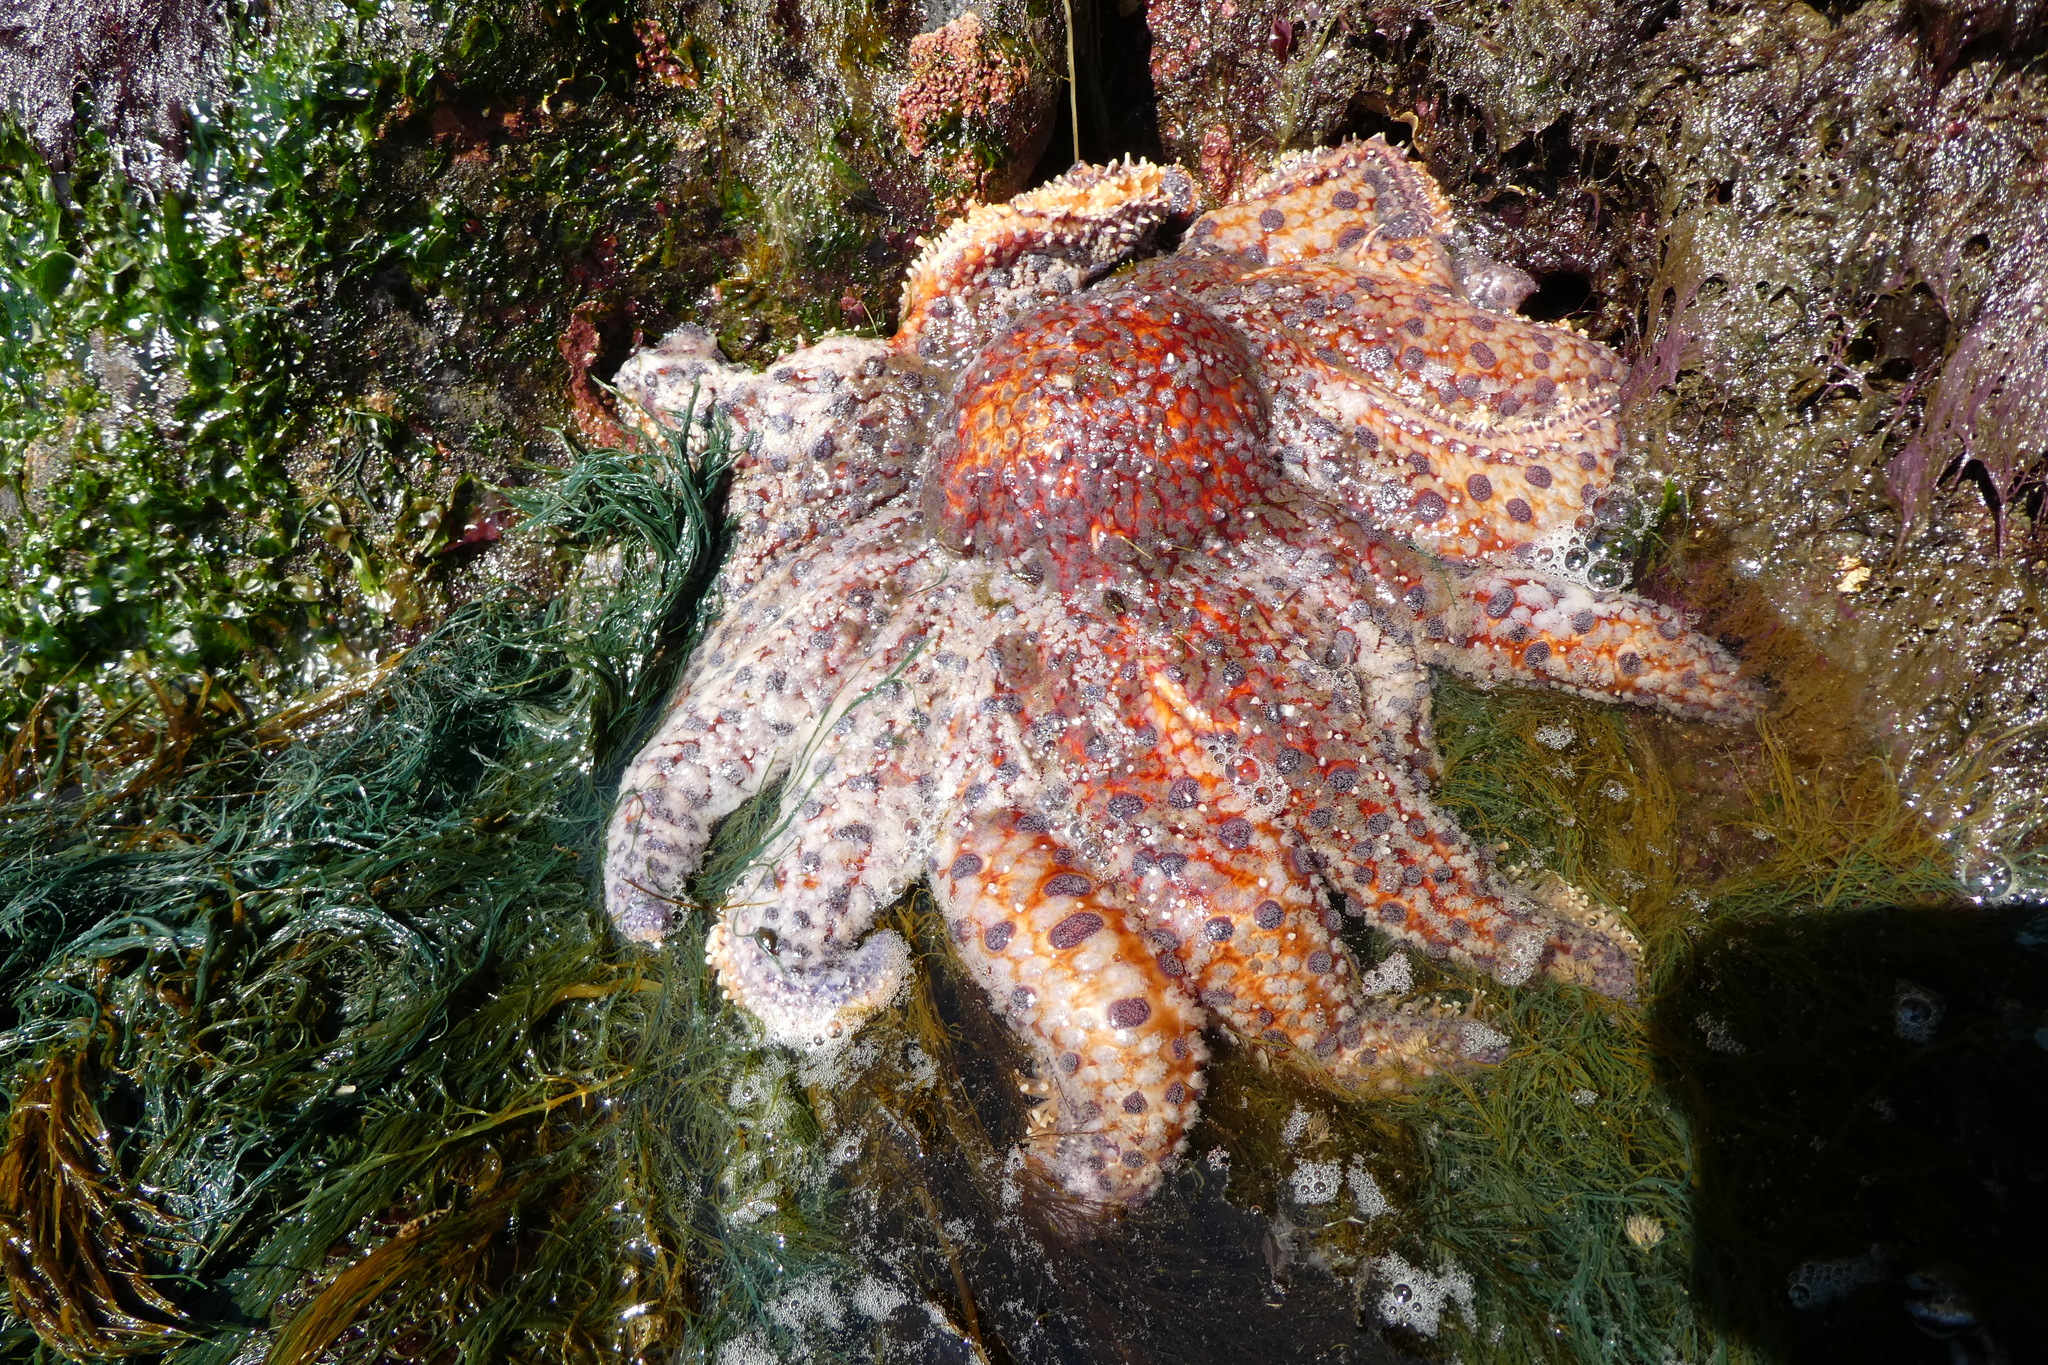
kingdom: Animalia
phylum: Echinodermata
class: Asteroidea
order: Forcipulatida
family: Asteriidae
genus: Pycnopodia
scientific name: Pycnopodia helianthoides
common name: Rag mop
